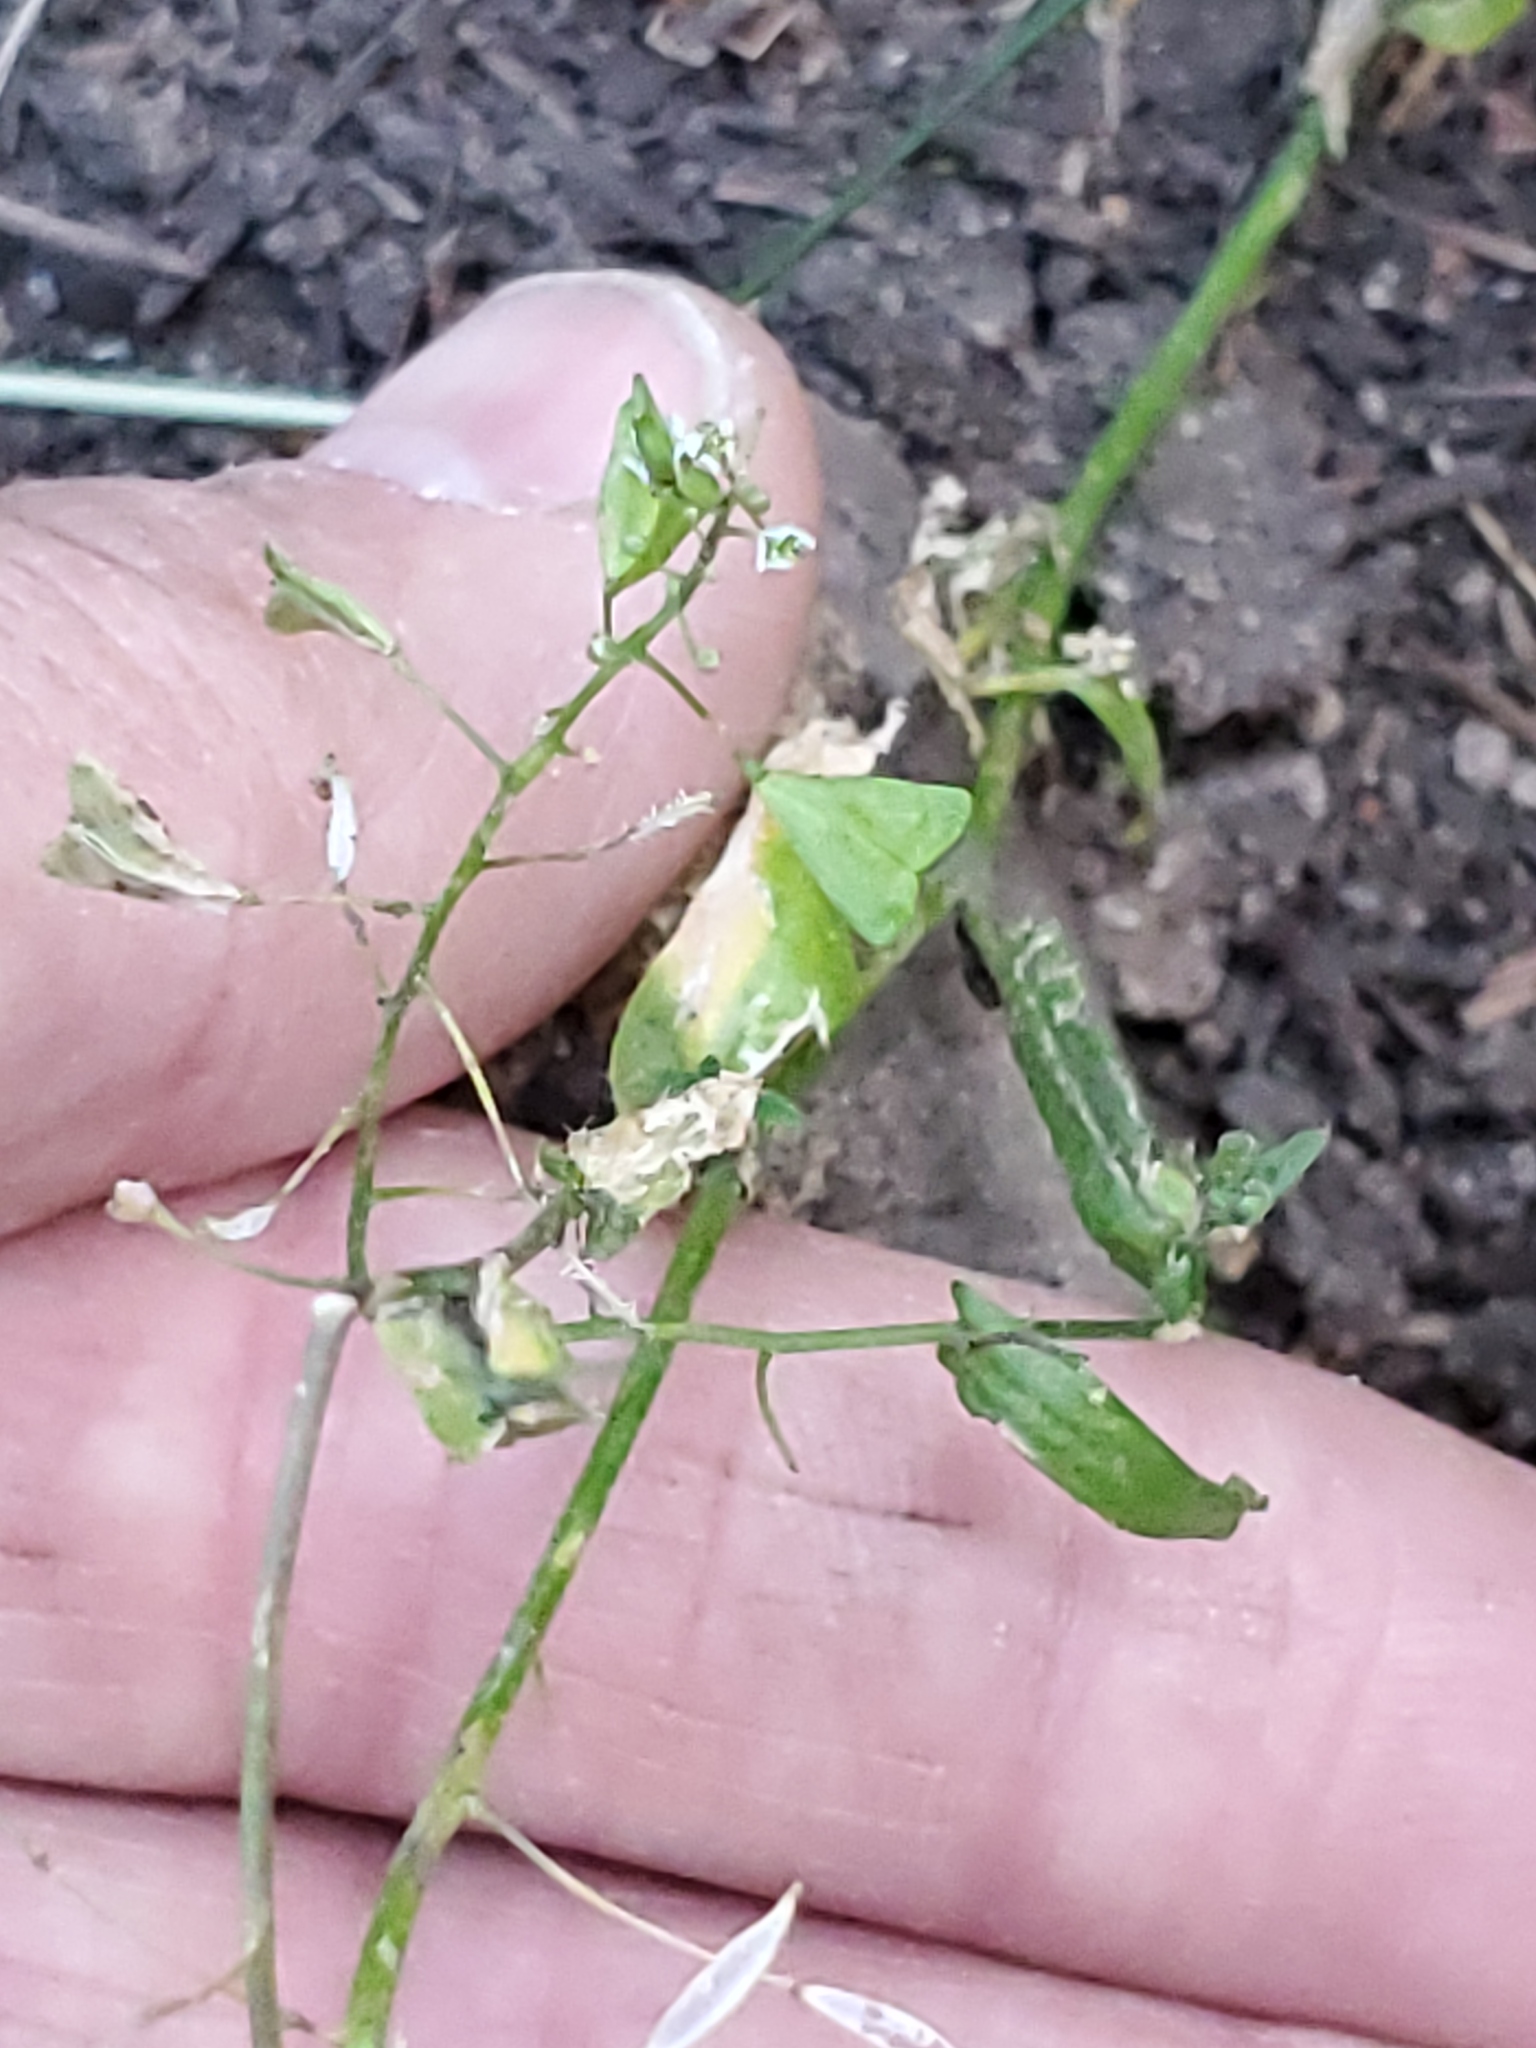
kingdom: Plantae
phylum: Tracheophyta
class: Magnoliopsida
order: Brassicales
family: Brassicaceae
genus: Capsella
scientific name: Capsella bursa-pastoris
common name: Shepherd's purse
